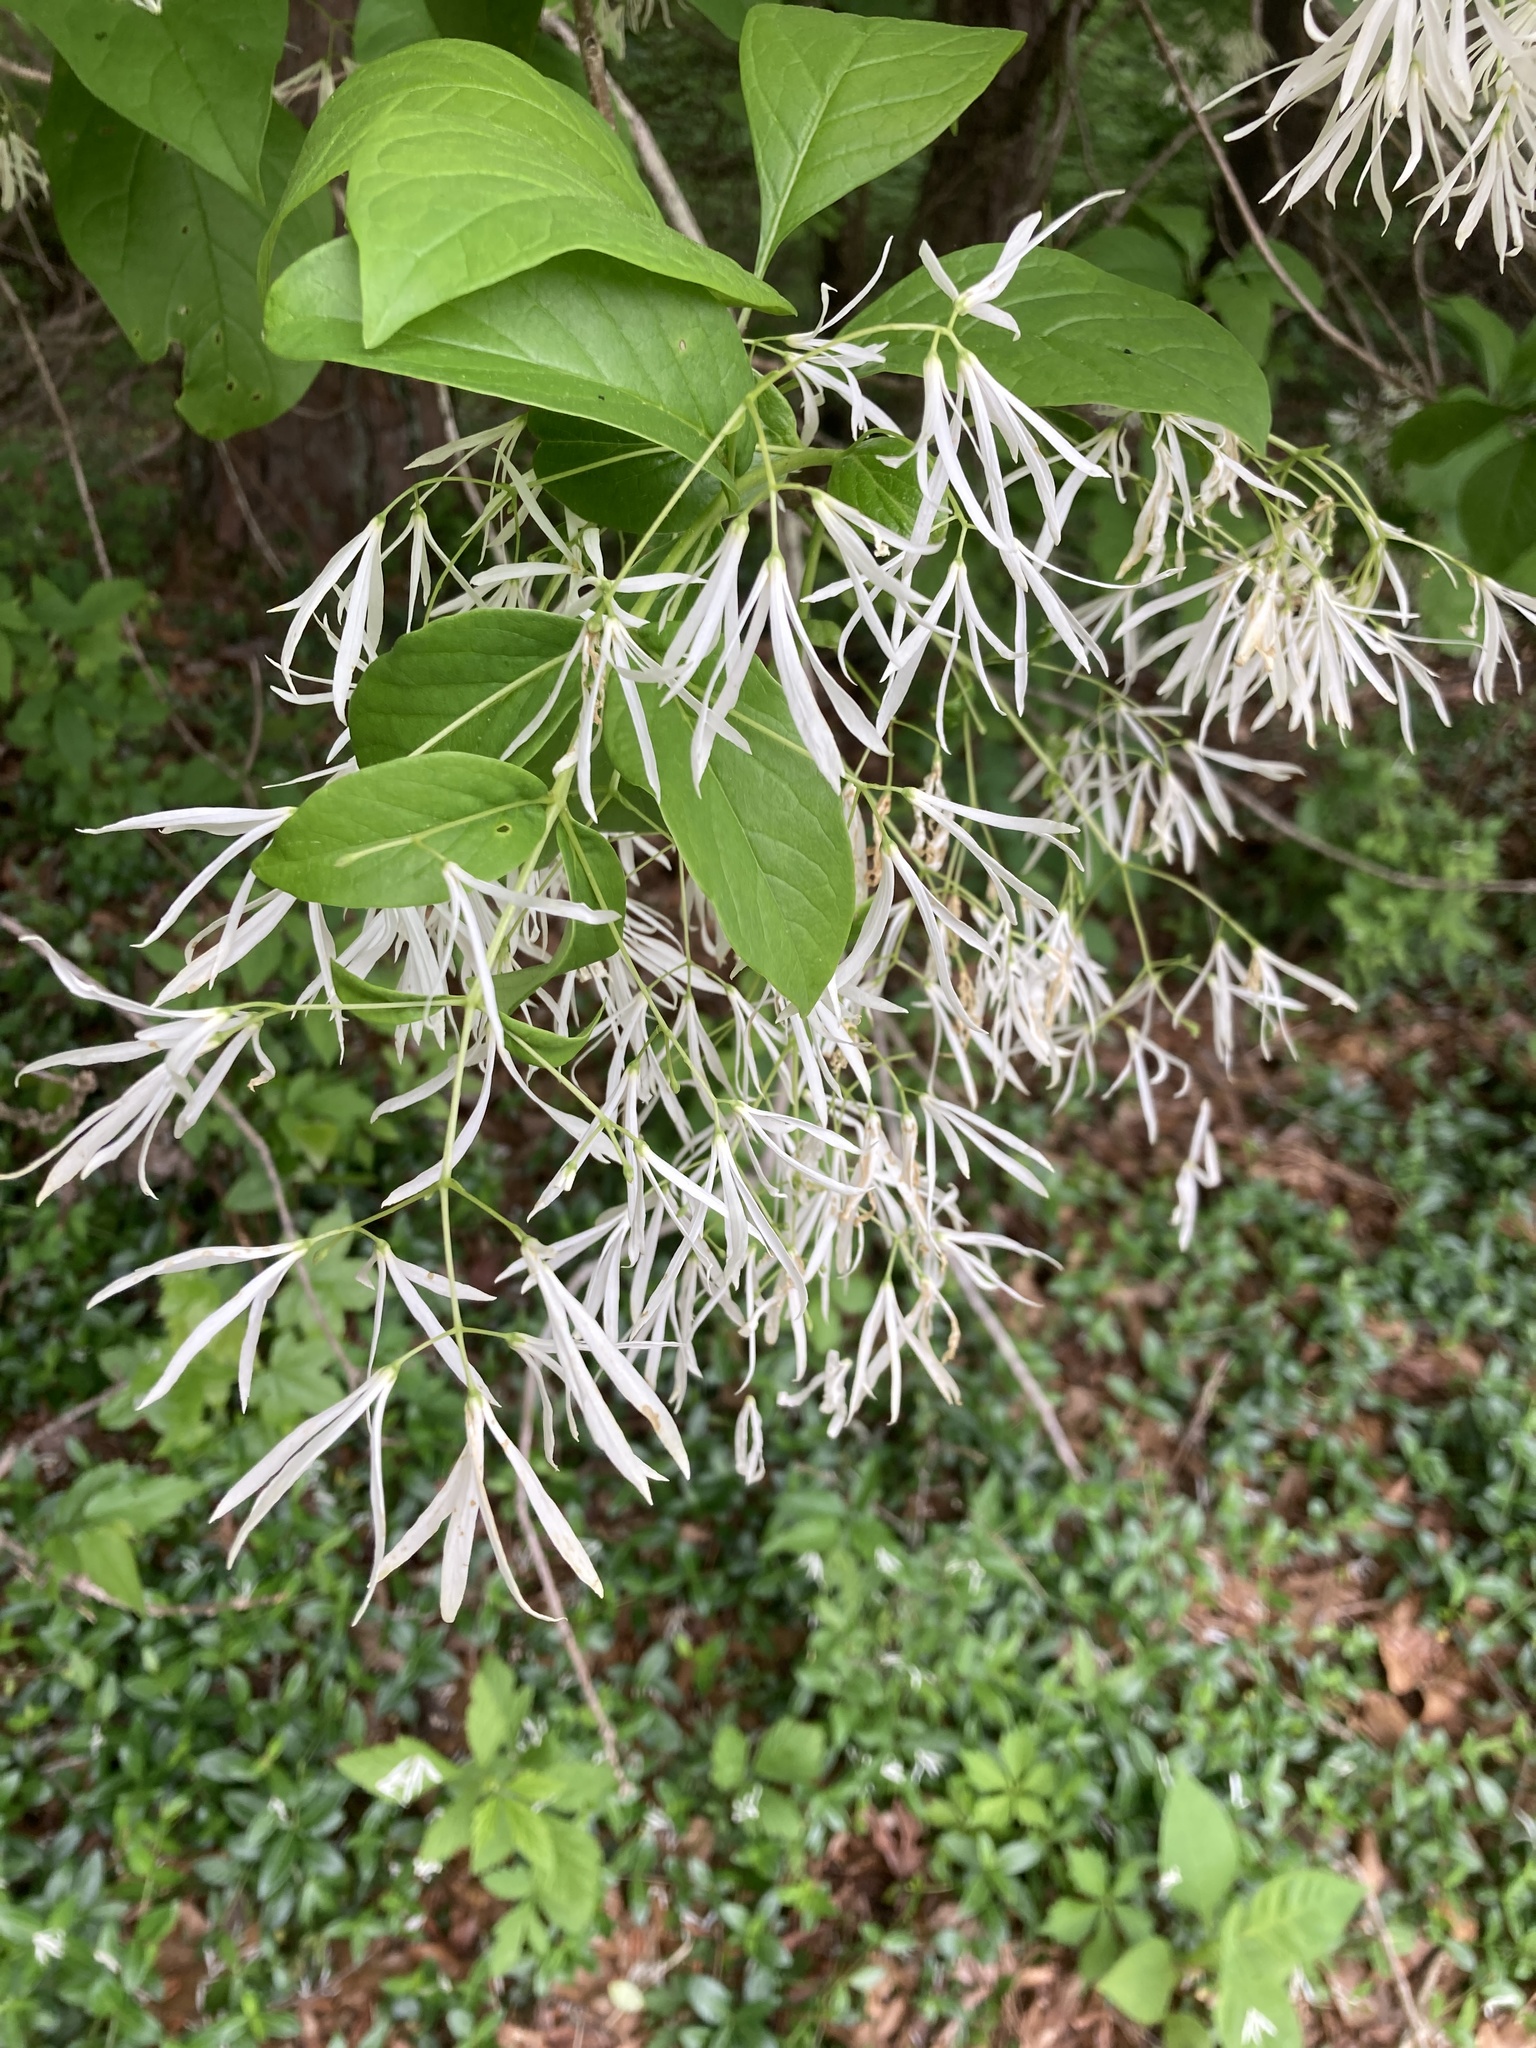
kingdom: Plantae
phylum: Tracheophyta
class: Magnoliopsida
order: Lamiales
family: Oleaceae
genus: Chionanthus
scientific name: Chionanthus virginicus
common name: American fringetree
